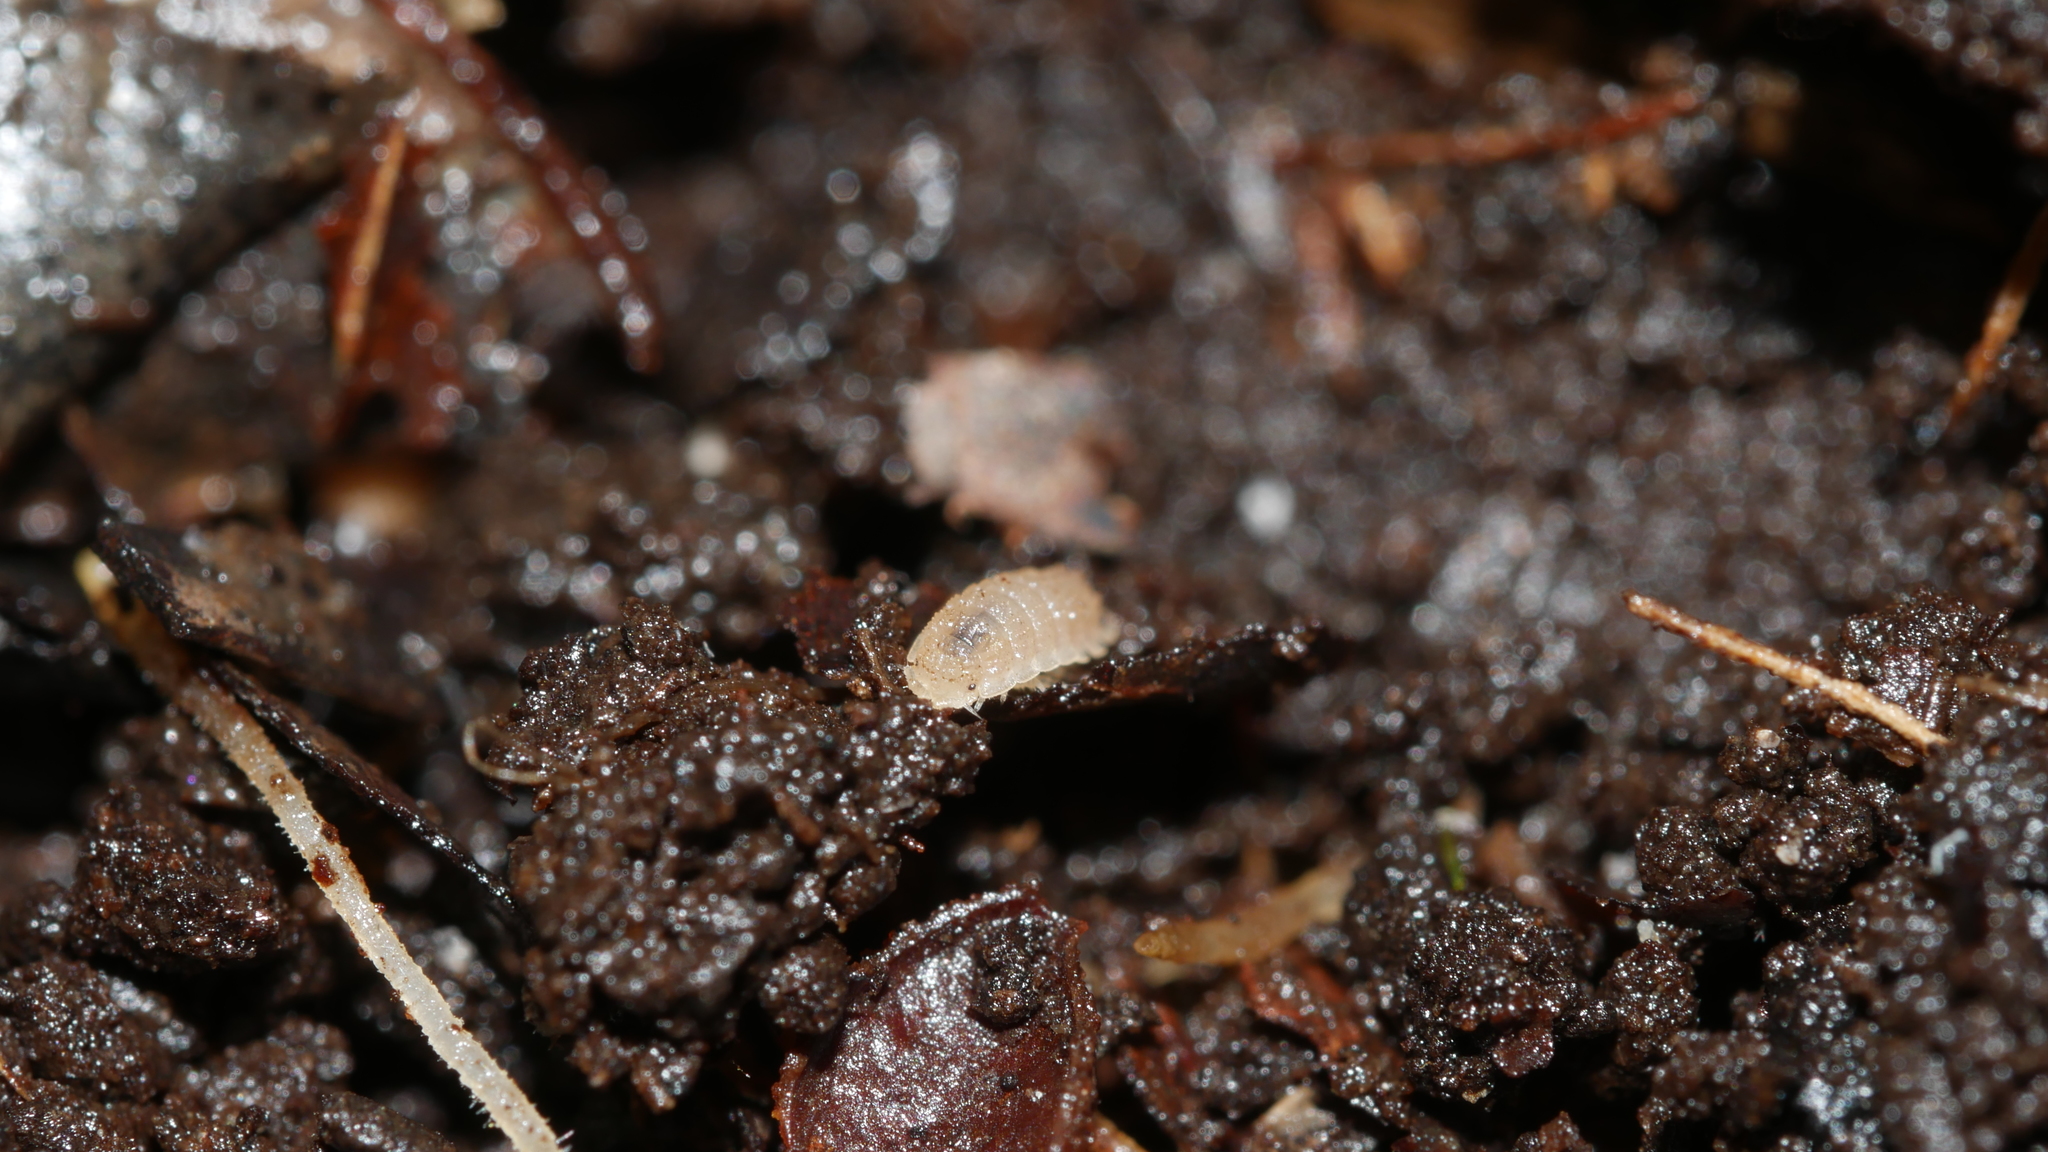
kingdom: Animalia
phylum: Arthropoda
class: Malacostraca
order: Isopoda
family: Trichoniscidae
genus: Haplophthalmus
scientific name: Haplophthalmus danicus
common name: Pillbug
